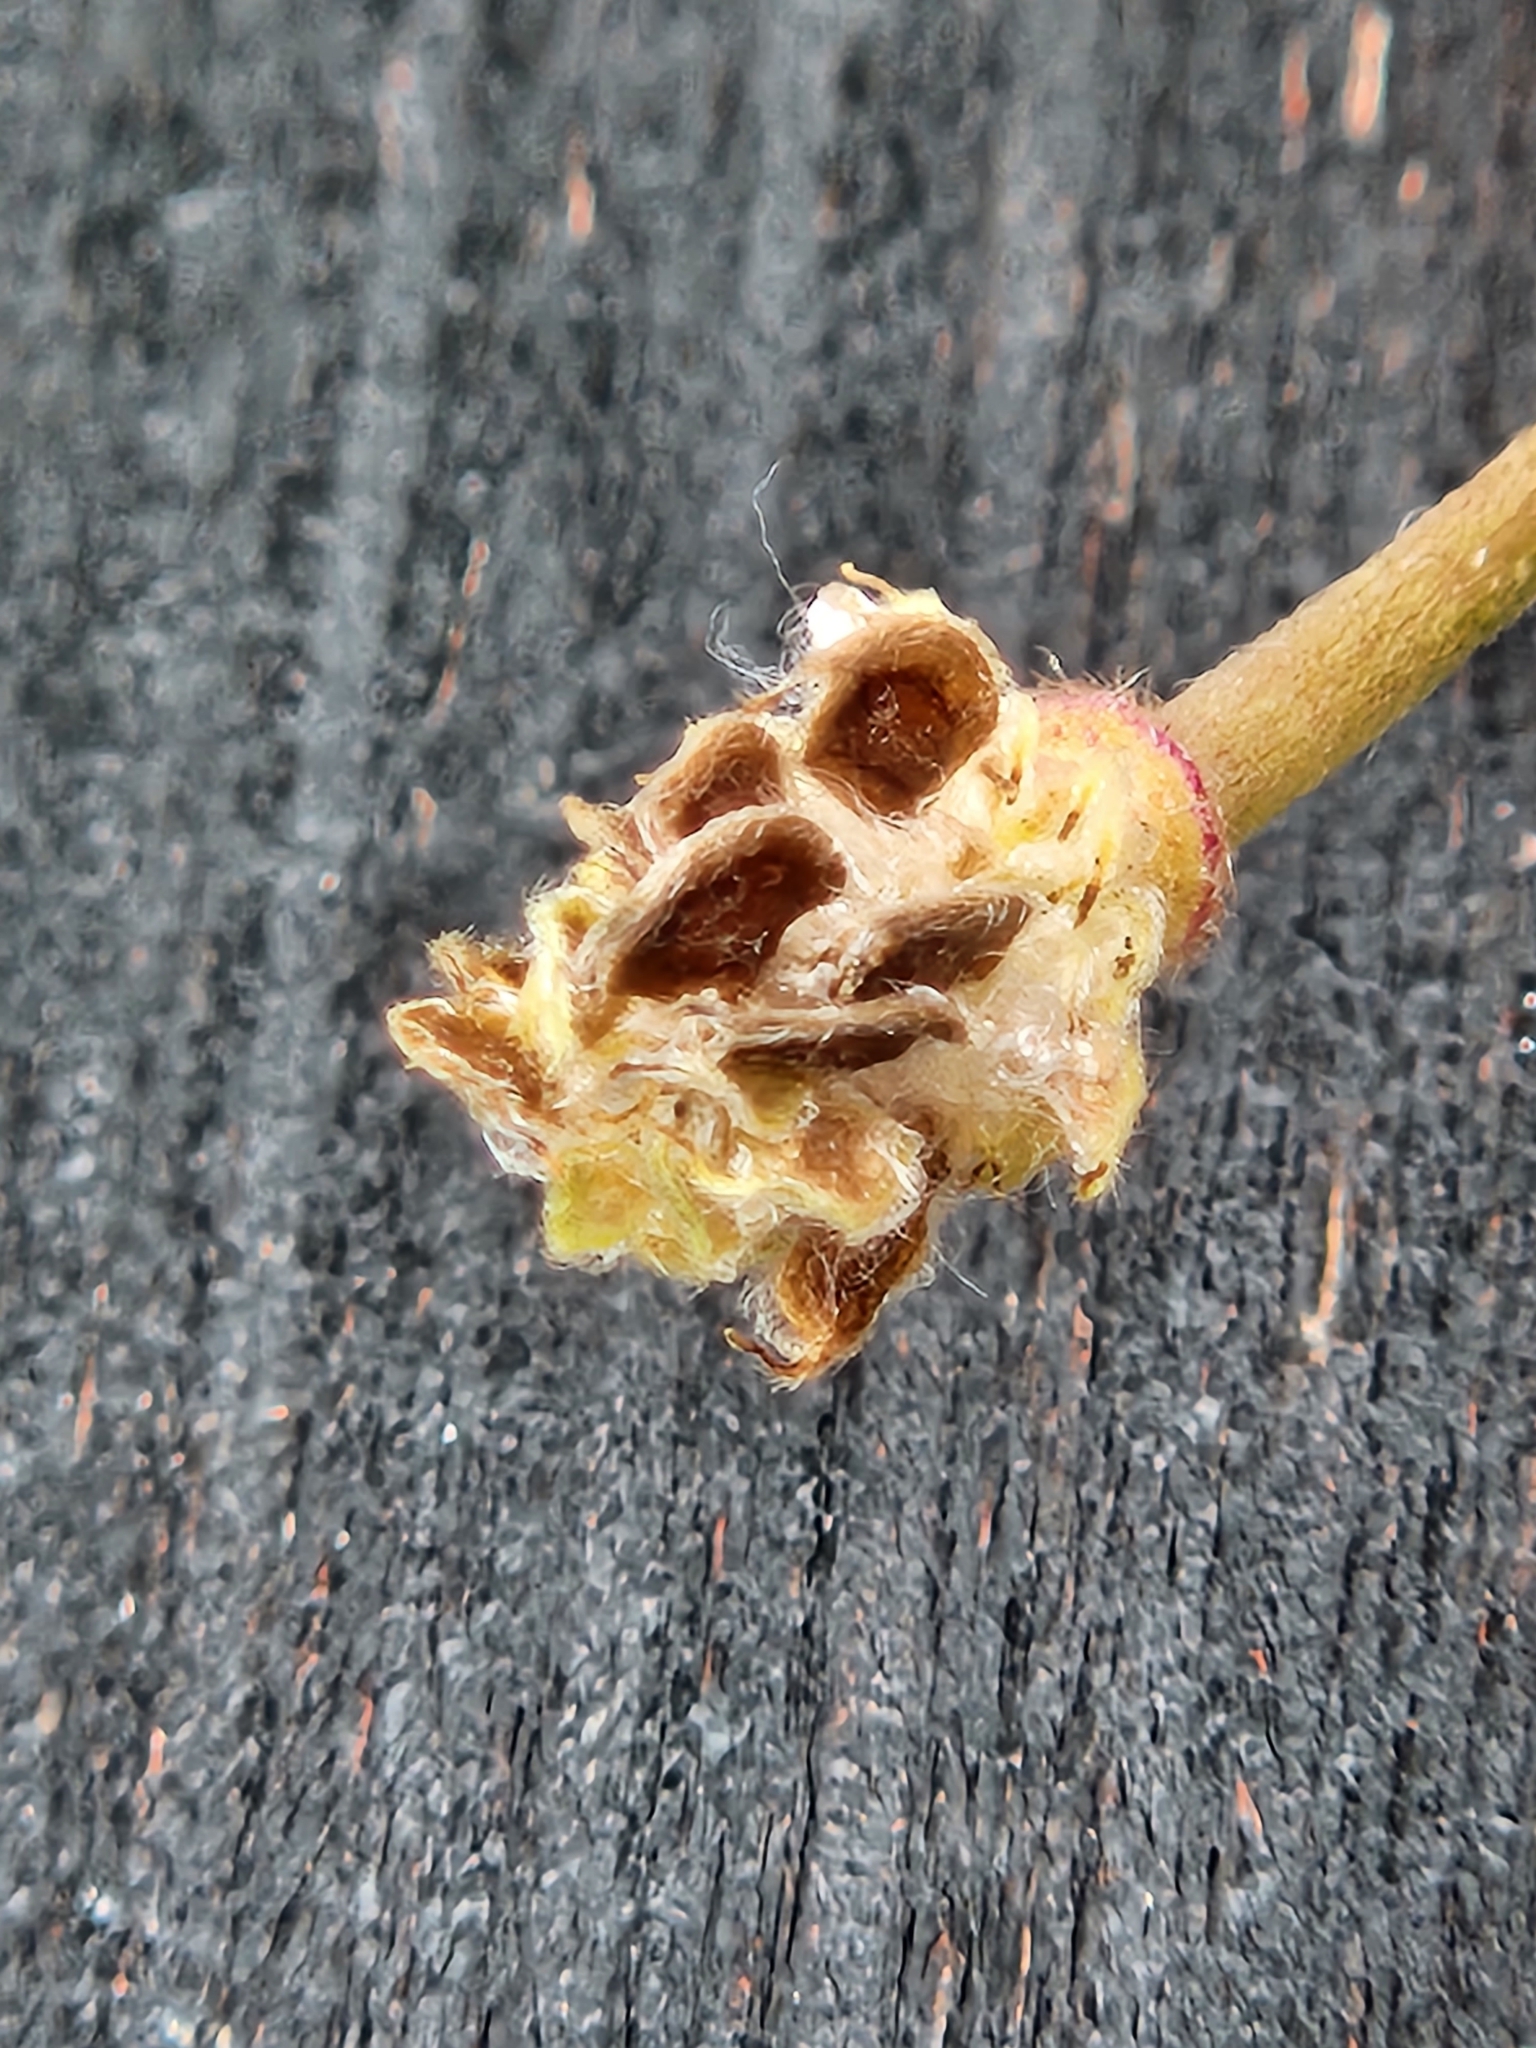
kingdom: Plantae
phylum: Tracheophyta
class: Magnoliopsida
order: Ranunculales
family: Ranunculaceae
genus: Anemone
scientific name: Anemone edwardsiana
